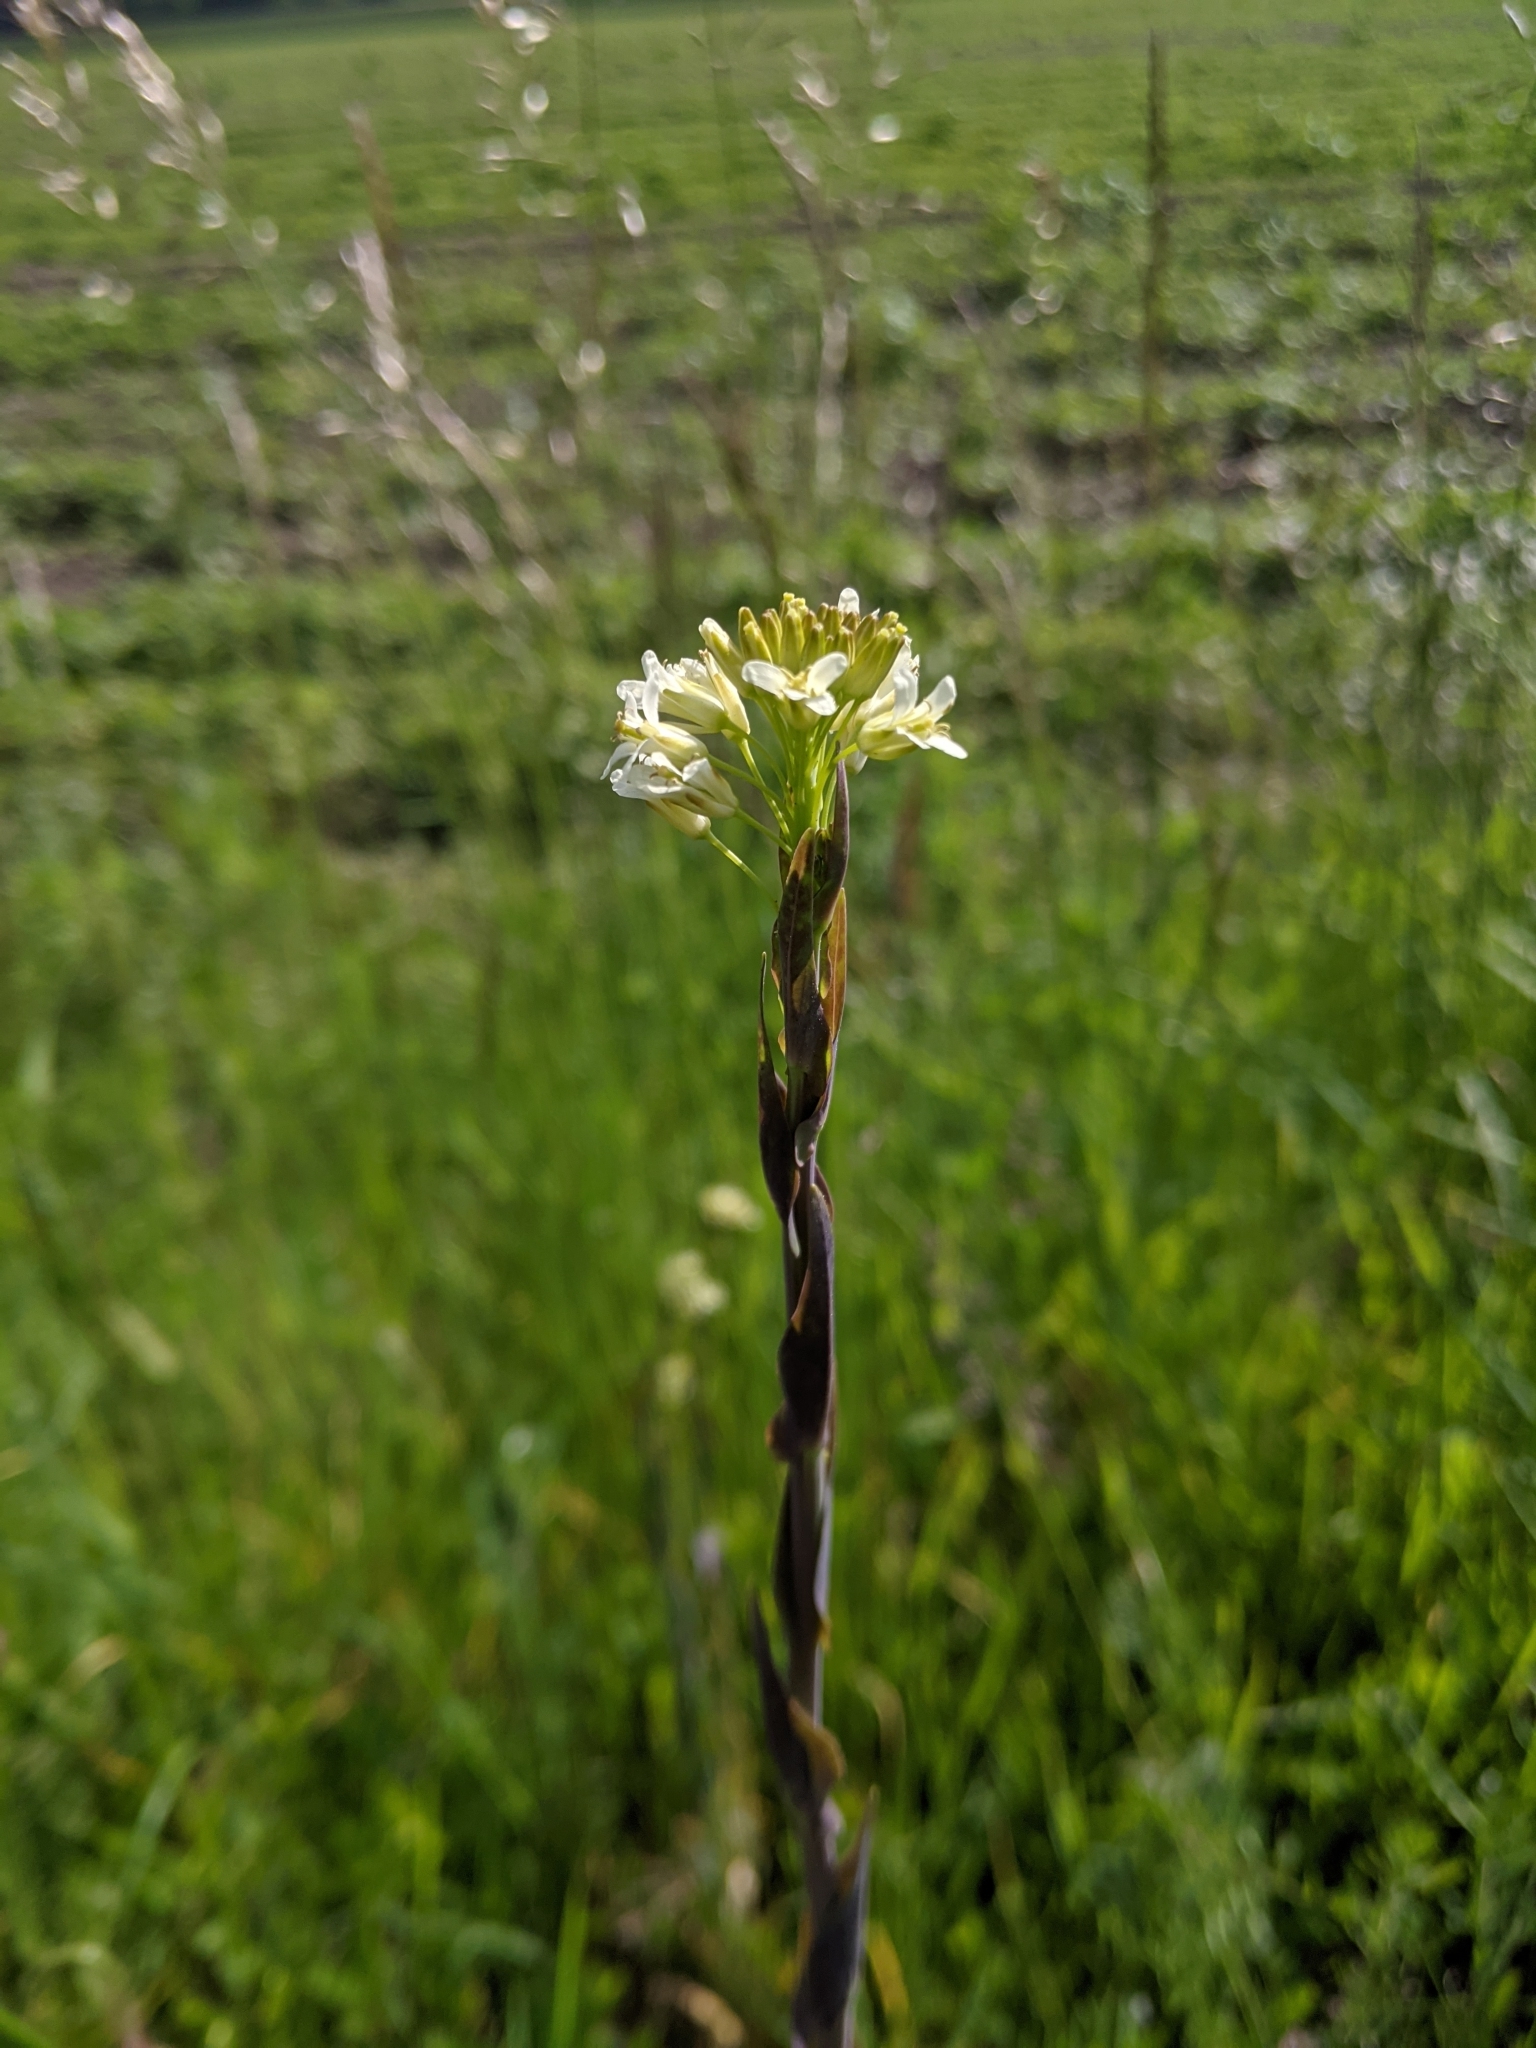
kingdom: Plantae
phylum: Tracheophyta
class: Magnoliopsida
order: Brassicales
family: Brassicaceae
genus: Turritis
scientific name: Turritis glabra
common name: Tower rockcress
